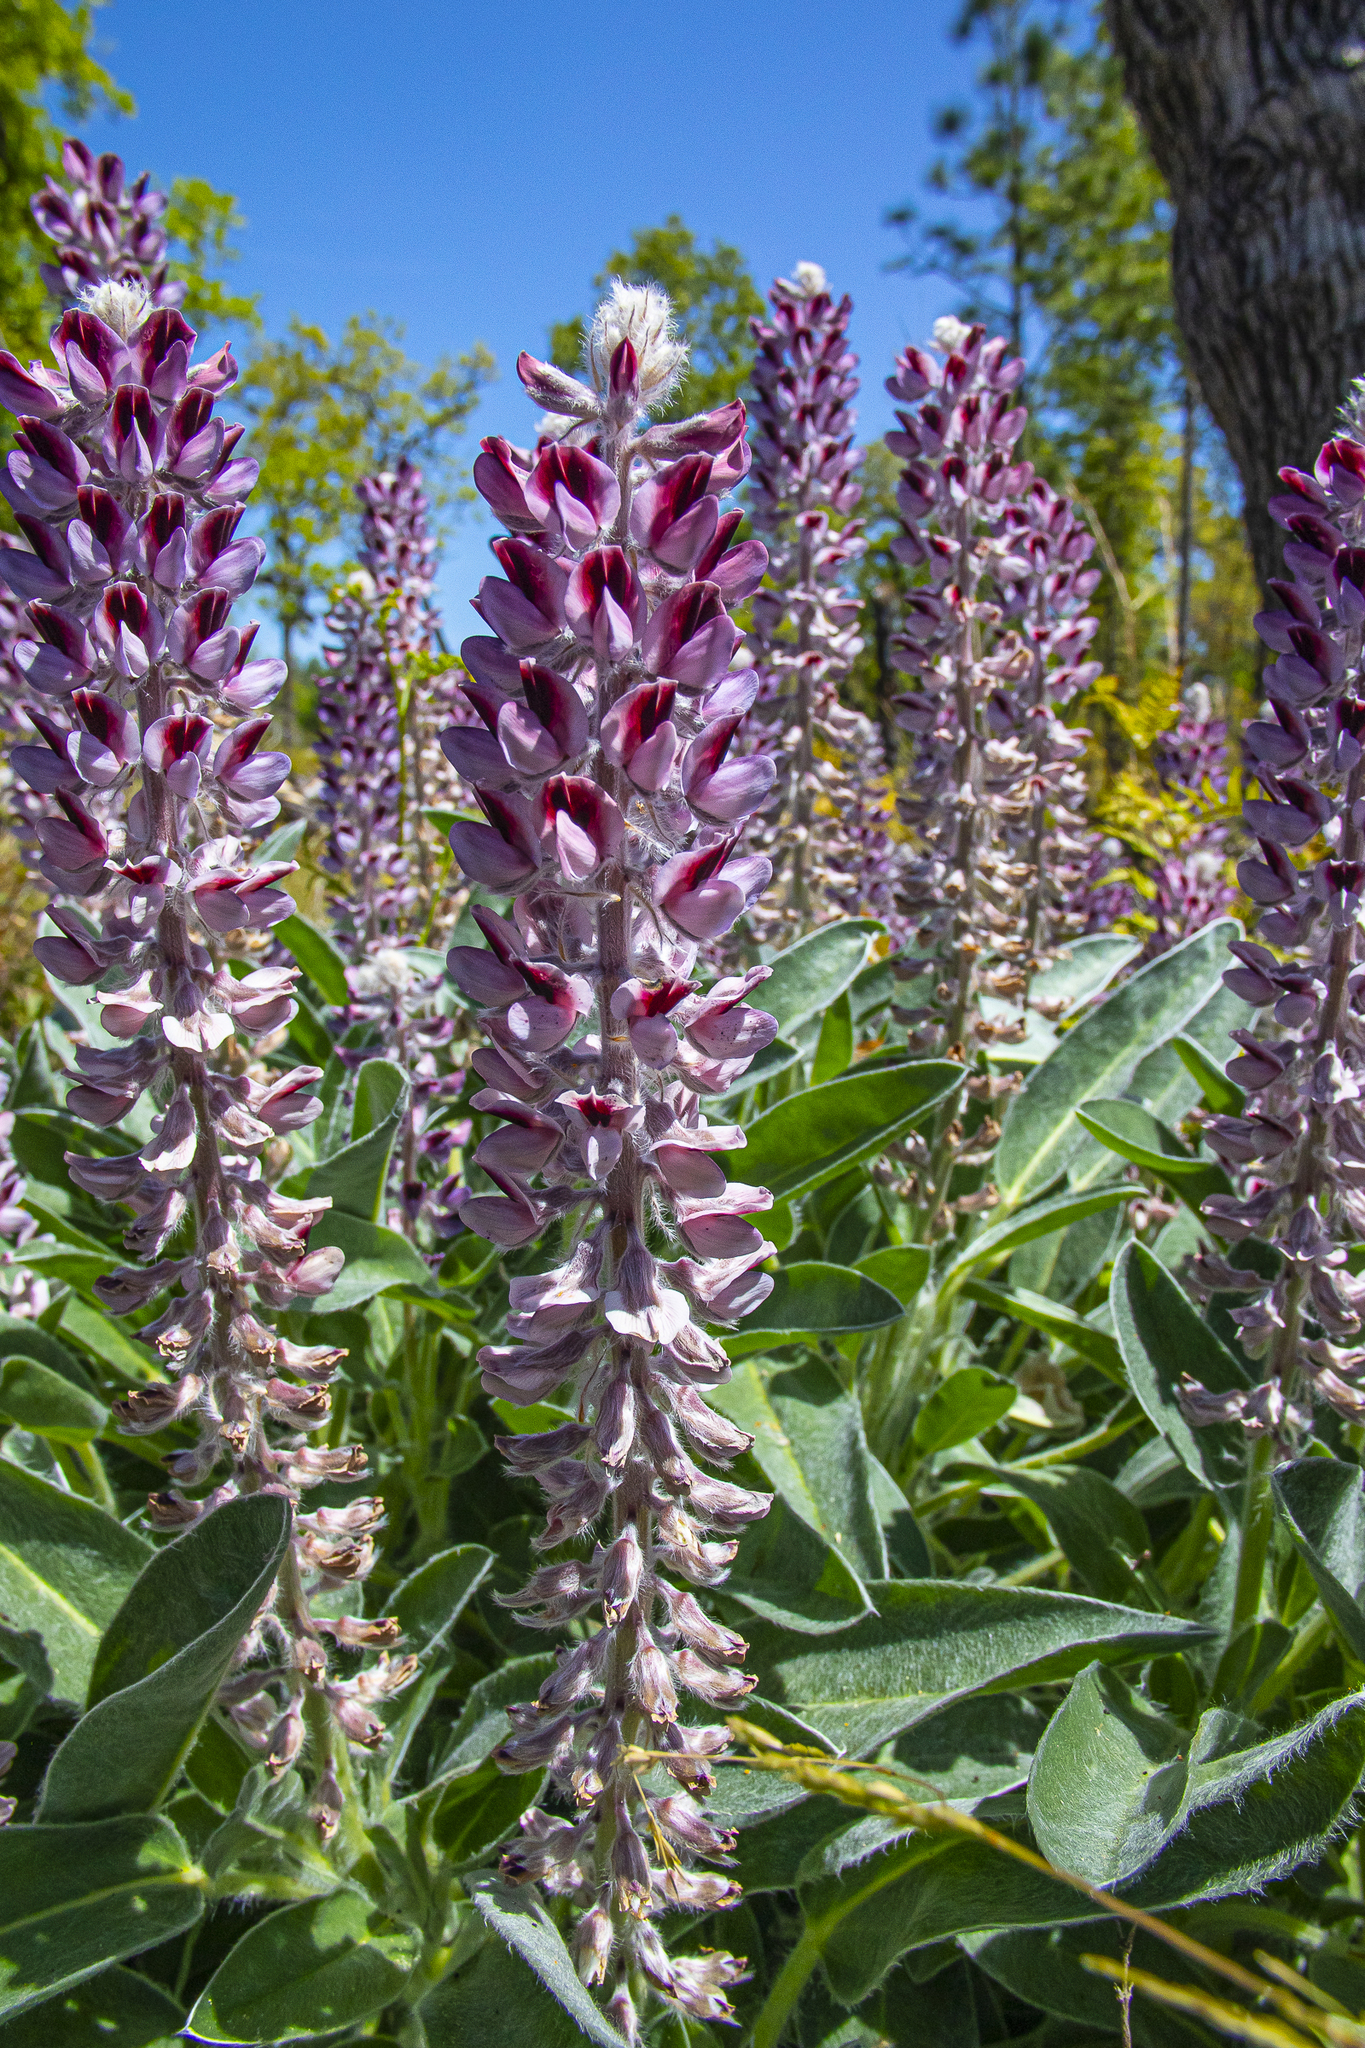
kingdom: Plantae
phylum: Tracheophyta
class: Magnoliopsida
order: Fabales
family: Fabaceae
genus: Lupinus
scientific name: Lupinus villosus
